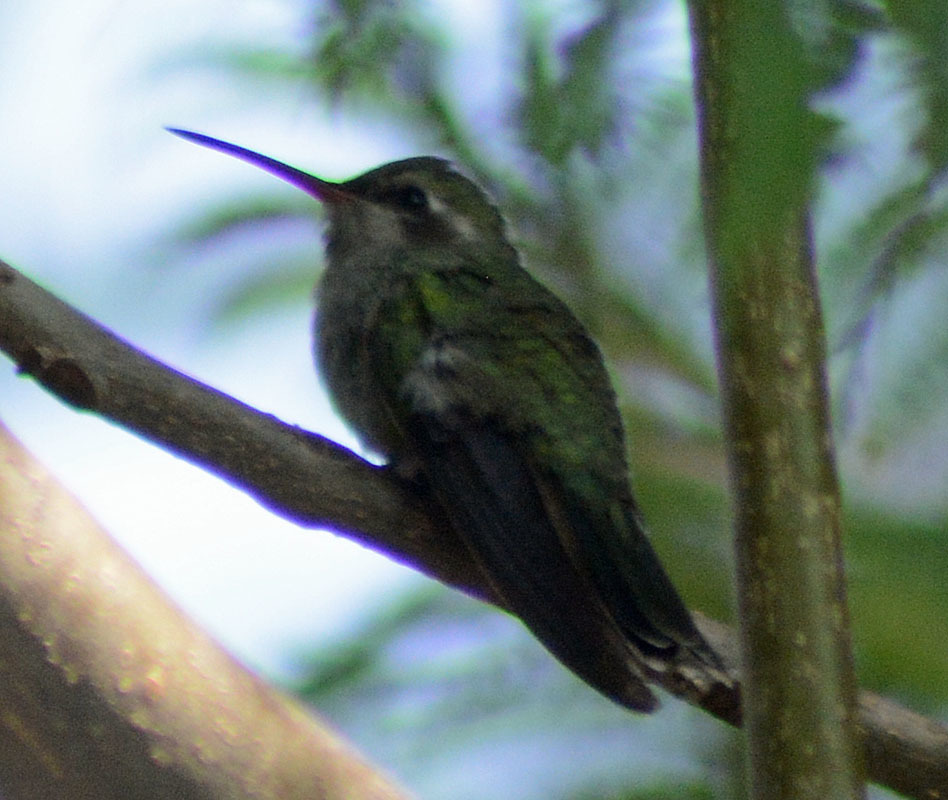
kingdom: Animalia
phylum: Chordata
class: Aves
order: Apodiformes
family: Trochilidae
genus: Cynanthus
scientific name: Cynanthus latirostris
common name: Broad-billed hummingbird
